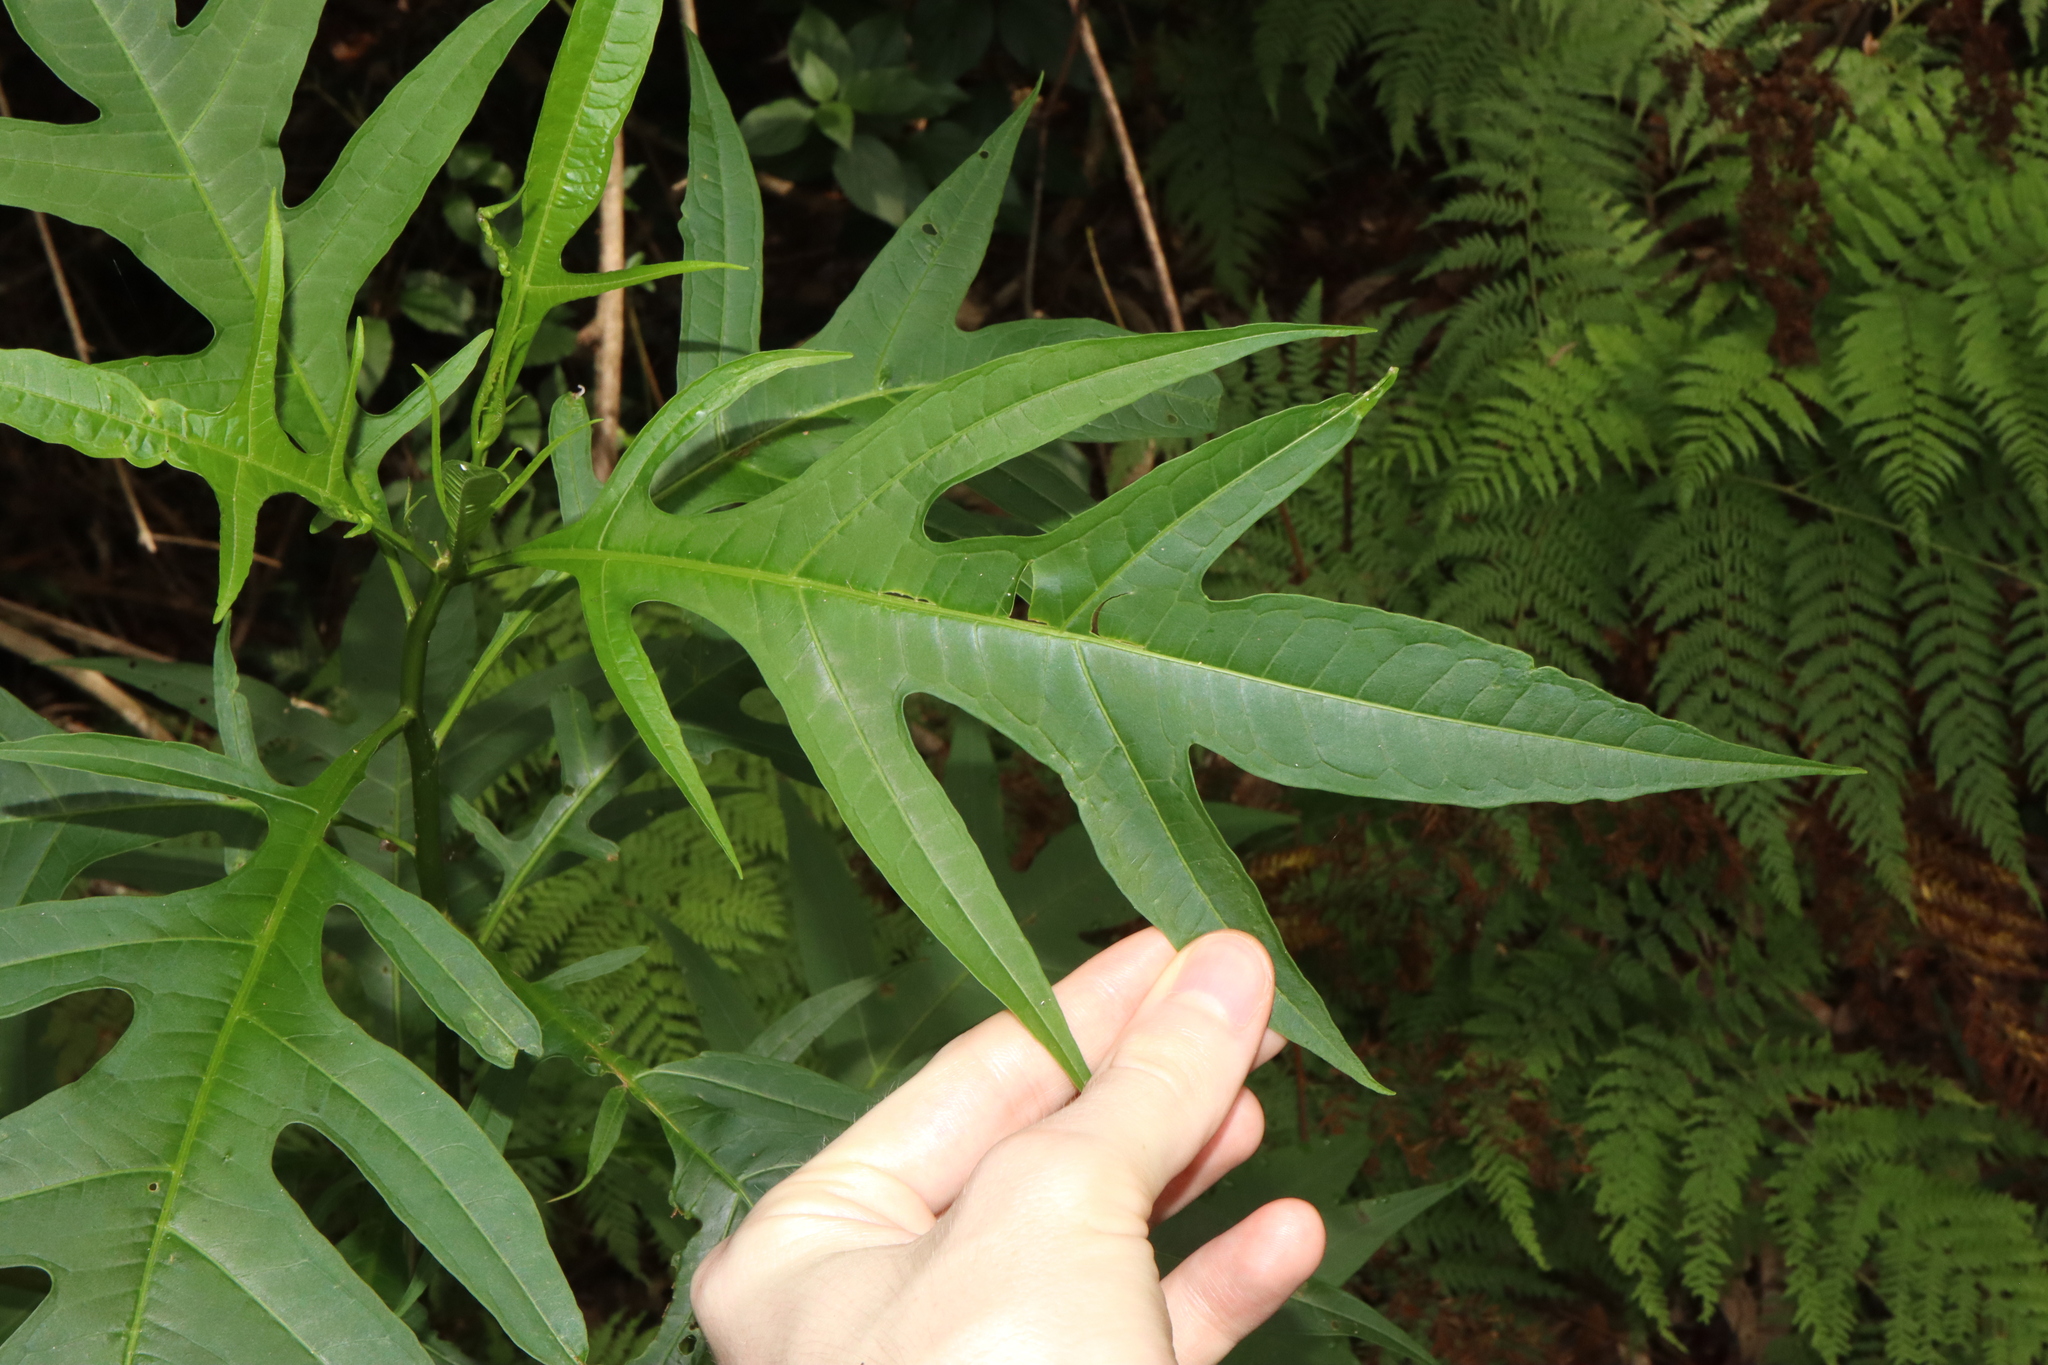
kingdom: Plantae
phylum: Tracheophyta
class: Magnoliopsida
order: Solanales
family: Solanaceae
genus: Solanum
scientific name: Solanum aviculare
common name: New zealand nightshade
